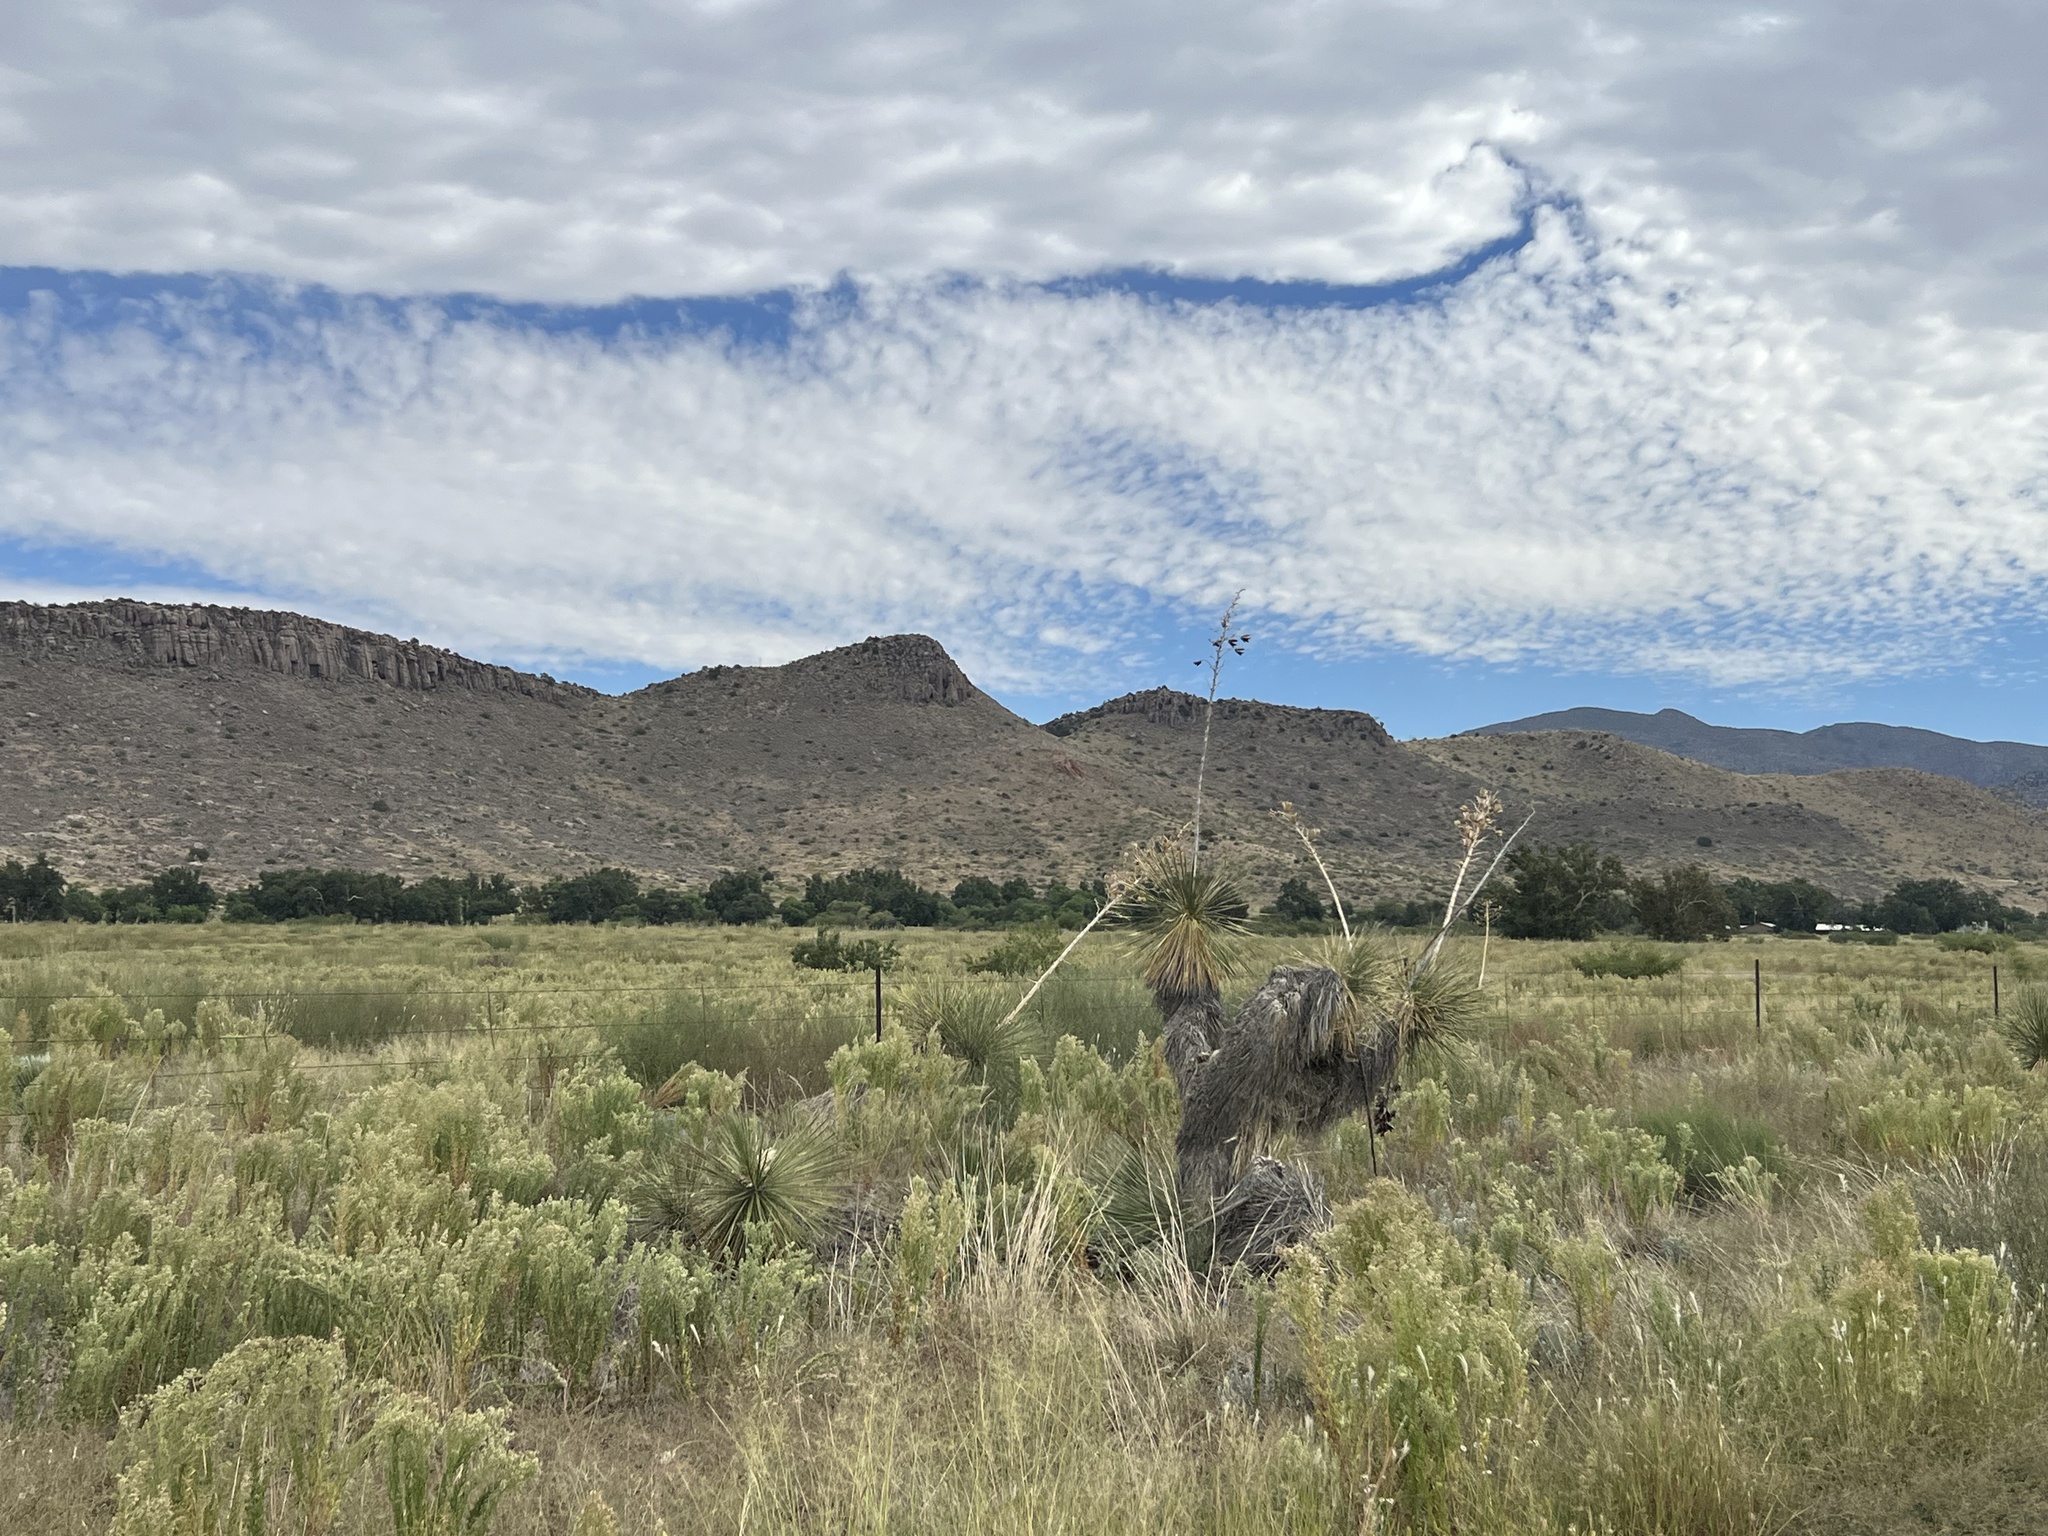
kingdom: Plantae
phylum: Tracheophyta
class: Liliopsida
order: Asparagales
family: Asparagaceae
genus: Yucca
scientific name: Yucca elata
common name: Palmella
